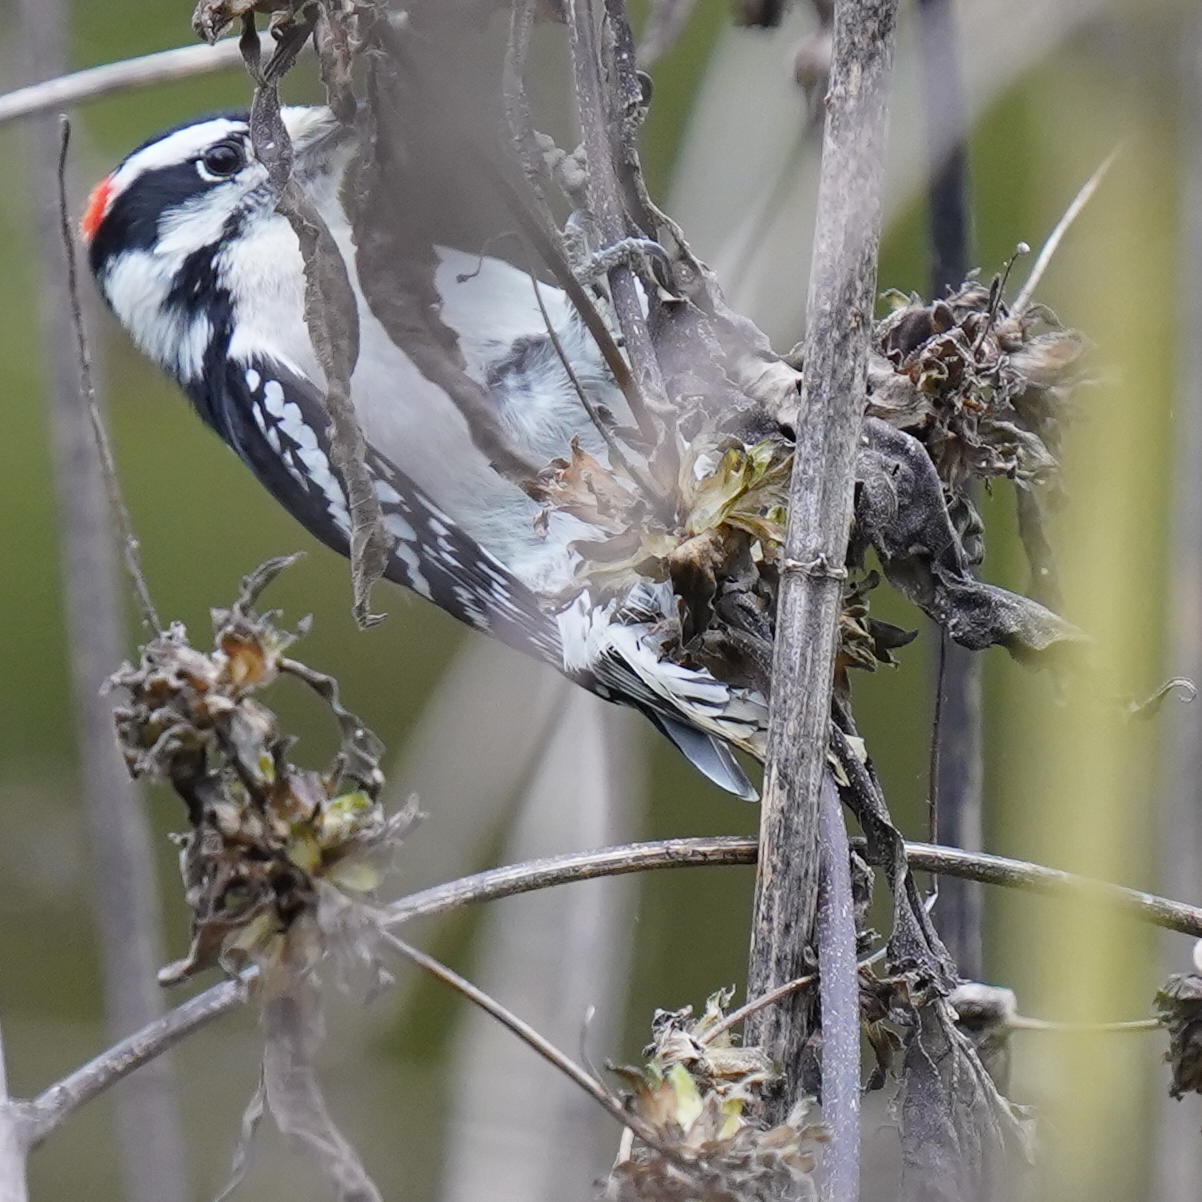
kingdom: Animalia
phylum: Chordata
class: Aves
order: Piciformes
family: Picidae
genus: Dryobates
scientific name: Dryobates pubescens
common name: Downy woodpecker
